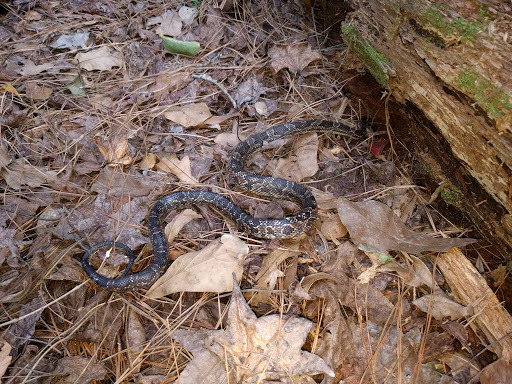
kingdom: Animalia
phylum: Chordata
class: Squamata
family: Colubridae
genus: Pantherophis
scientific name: Pantherophis obsoletus
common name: Black rat snake
